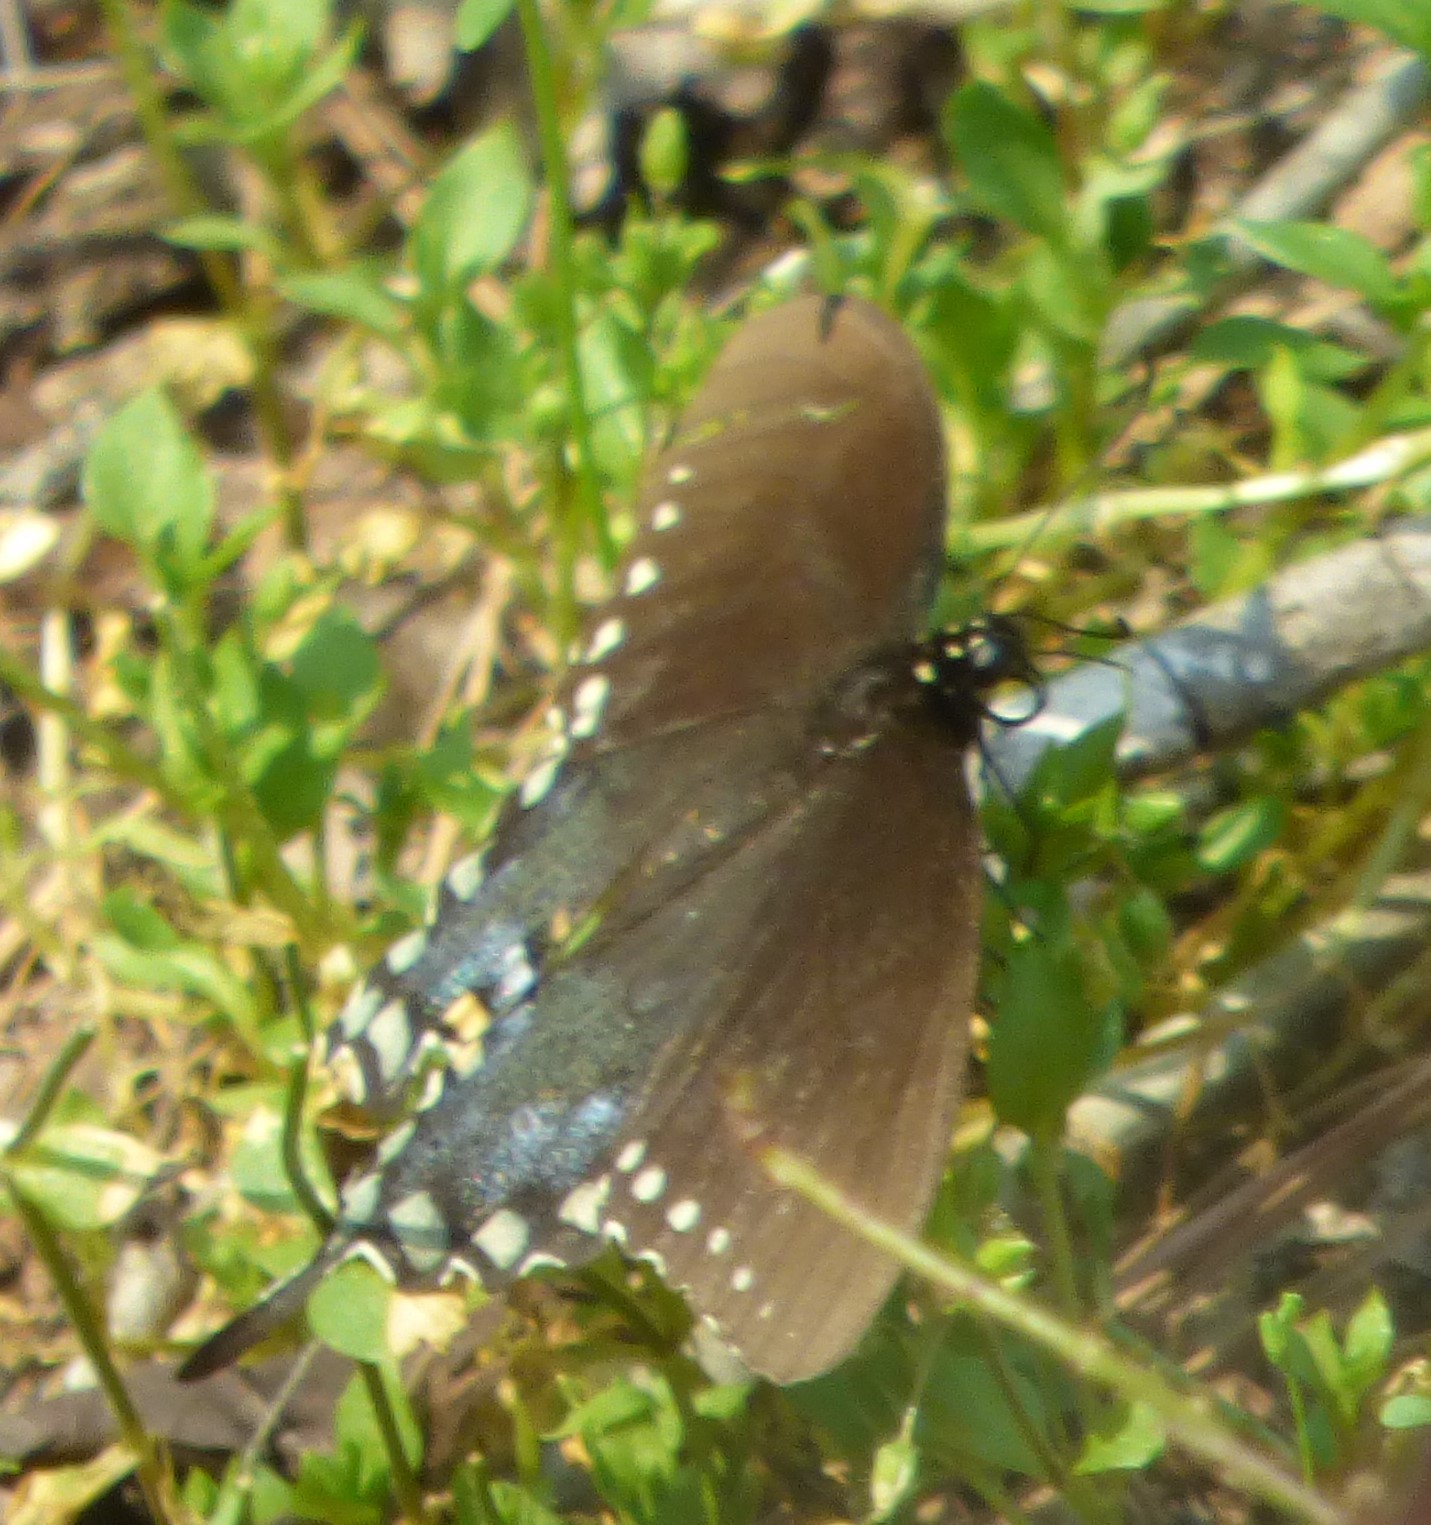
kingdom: Animalia
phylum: Arthropoda
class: Insecta
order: Lepidoptera
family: Papilionidae
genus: Papilio
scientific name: Papilio troilus
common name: Spicebush swallowtail
